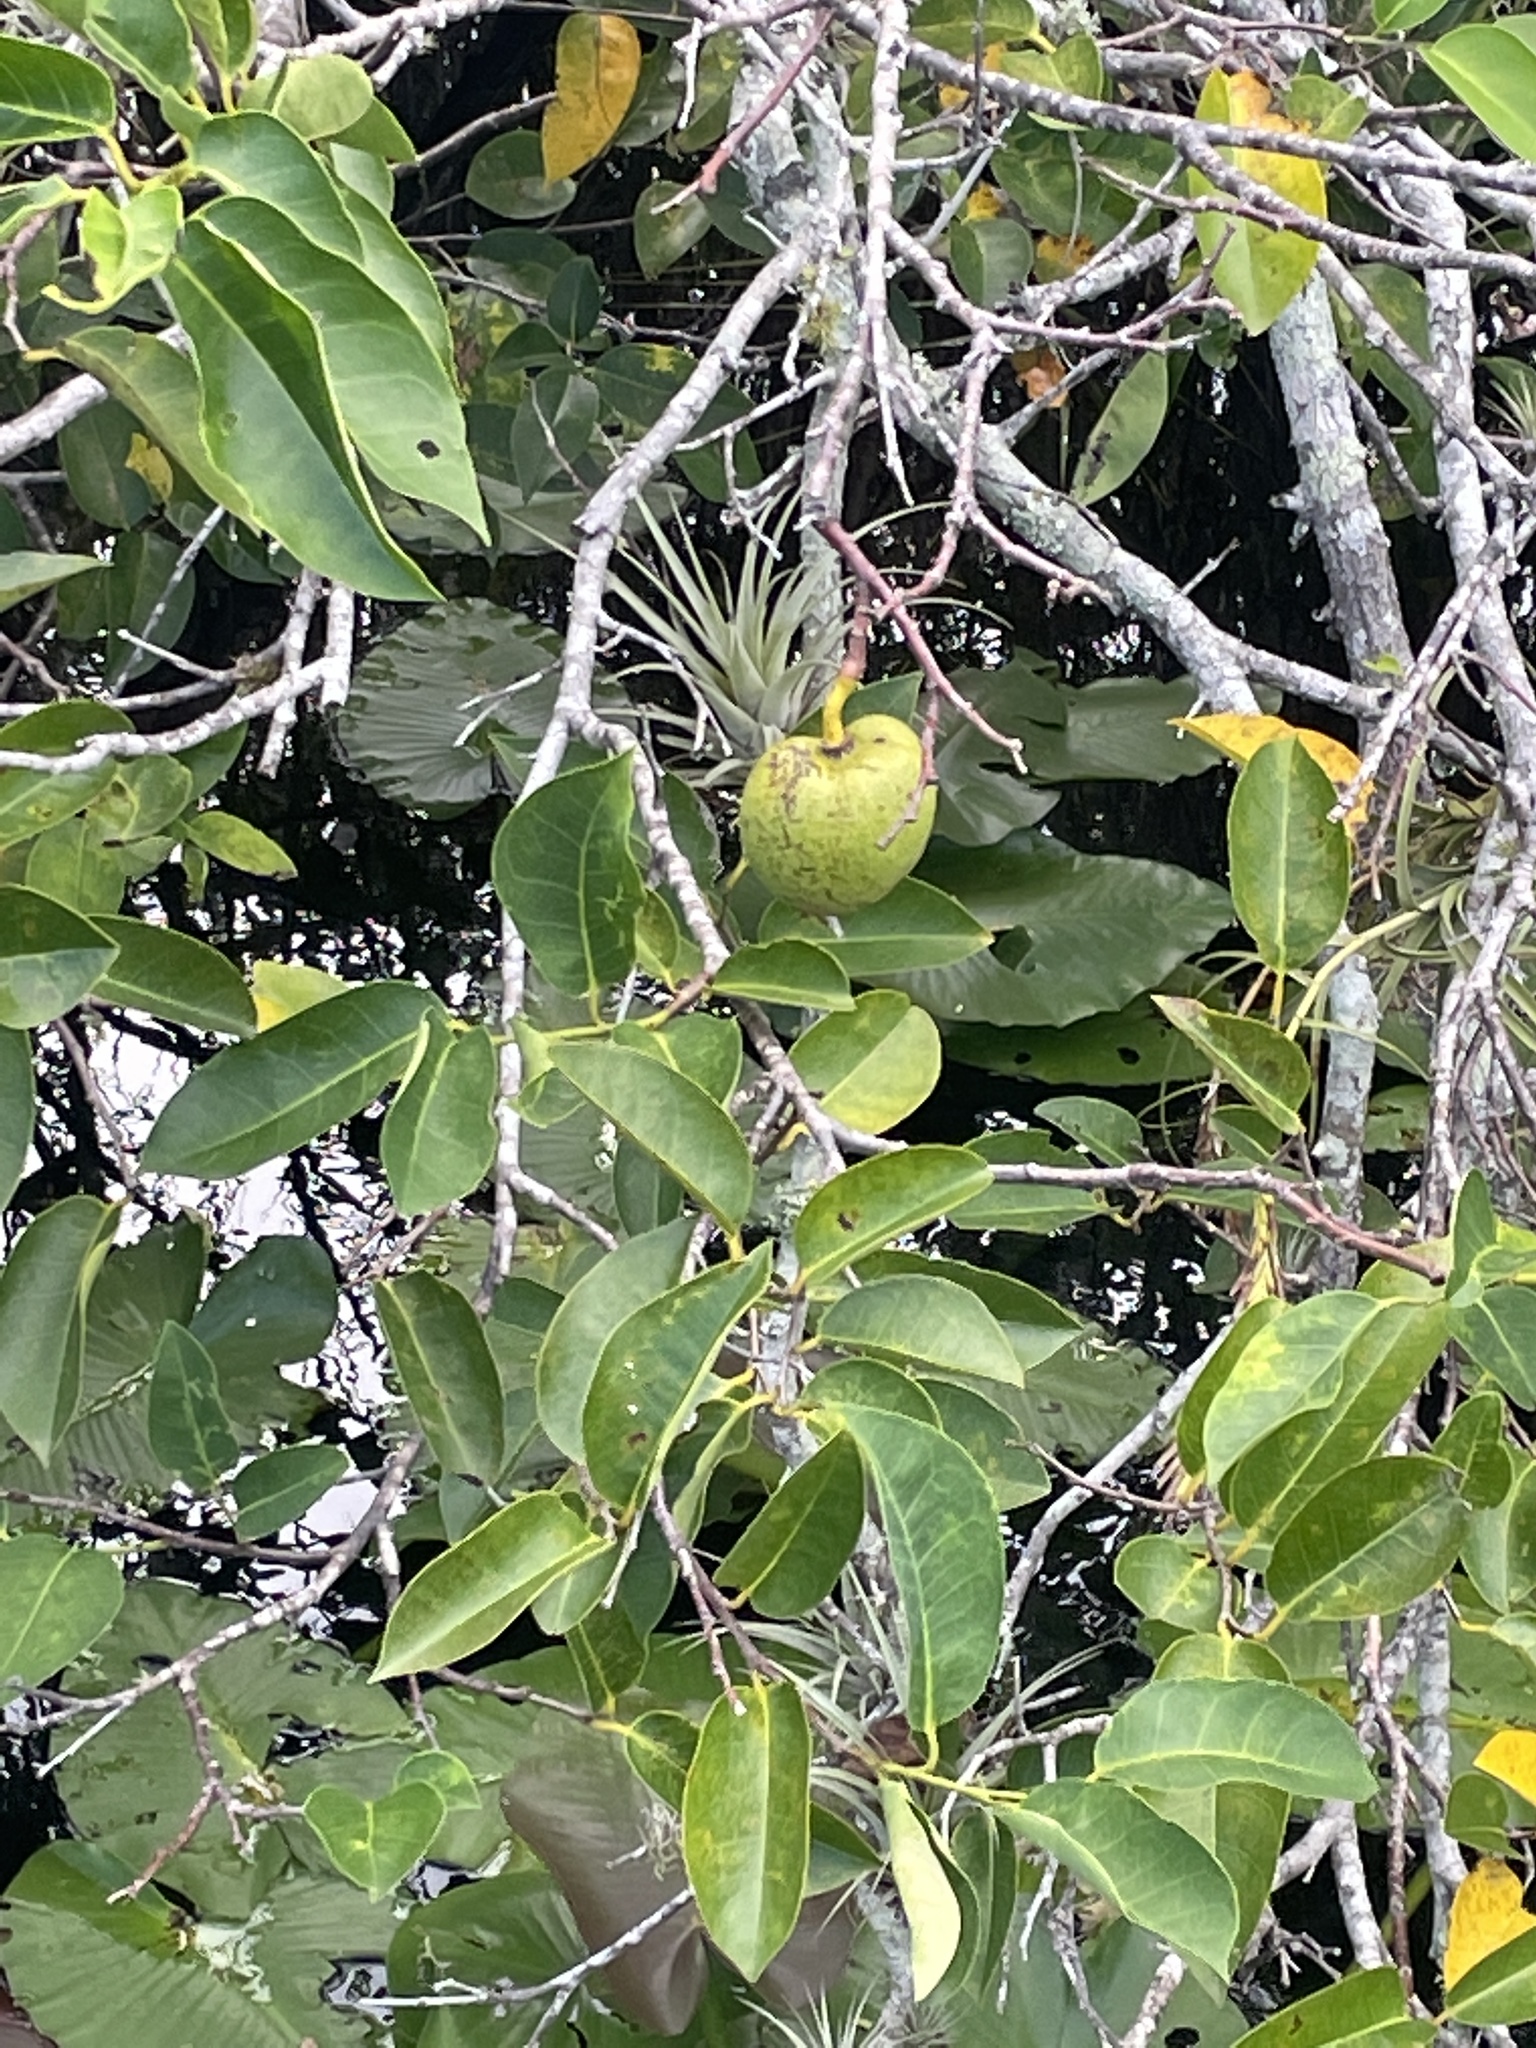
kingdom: Plantae
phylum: Tracheophyta
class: Magnoliopsida
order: Magnoliales
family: Annonaceae
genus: Annona
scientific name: Annona glabra
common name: Monkey apple
